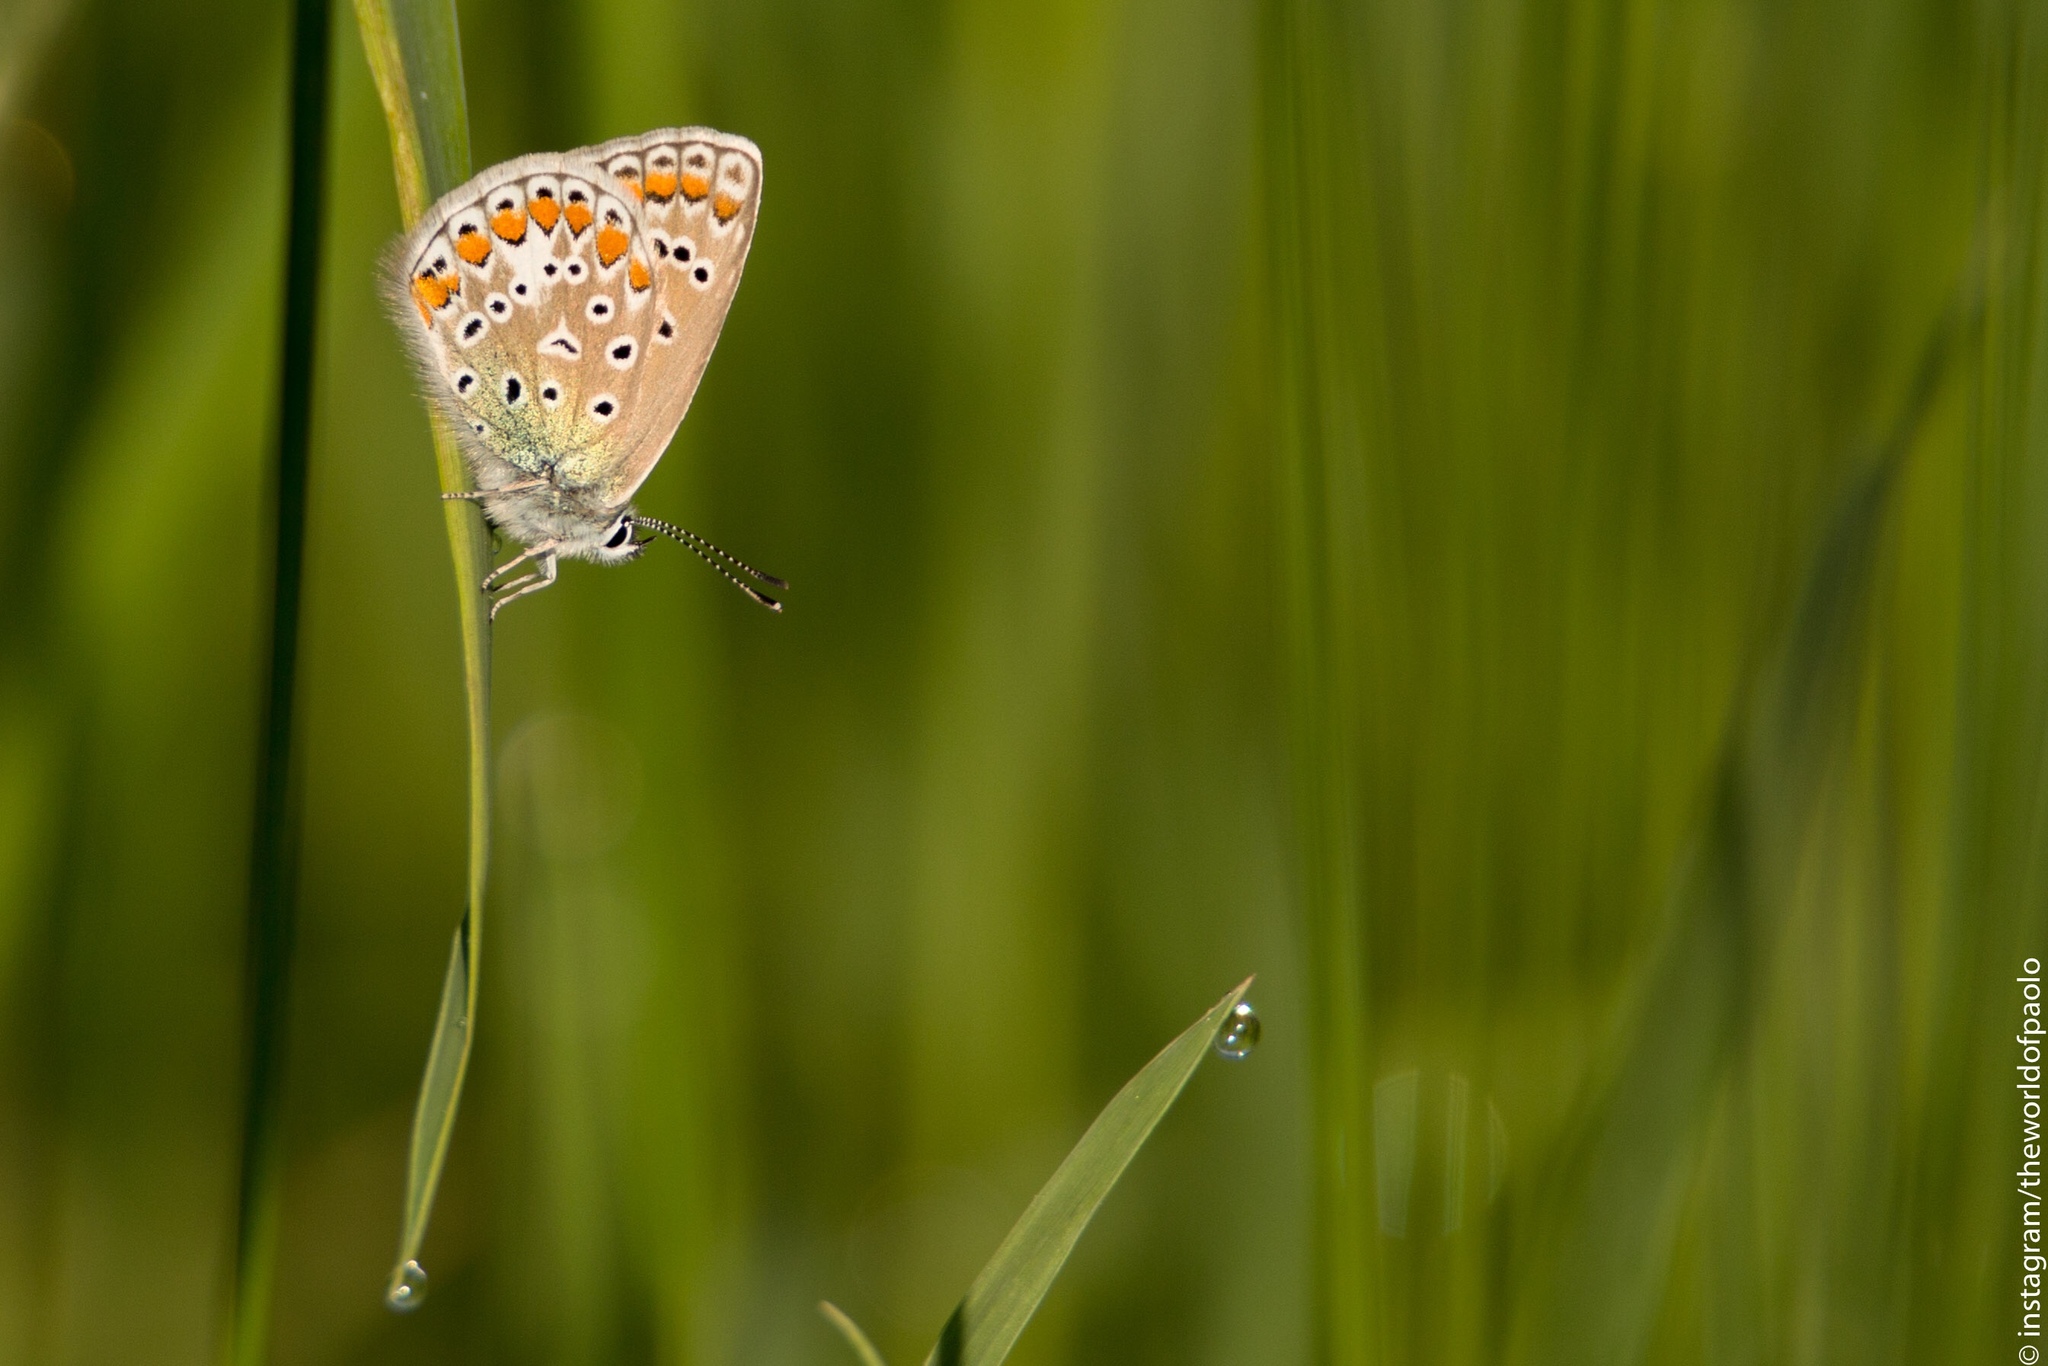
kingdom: Animalia
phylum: Arthropoda
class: Insecta
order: Lepidoptera
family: Lycaenidae
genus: Polyommatus
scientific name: Polyommatus icarus
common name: Common blue
